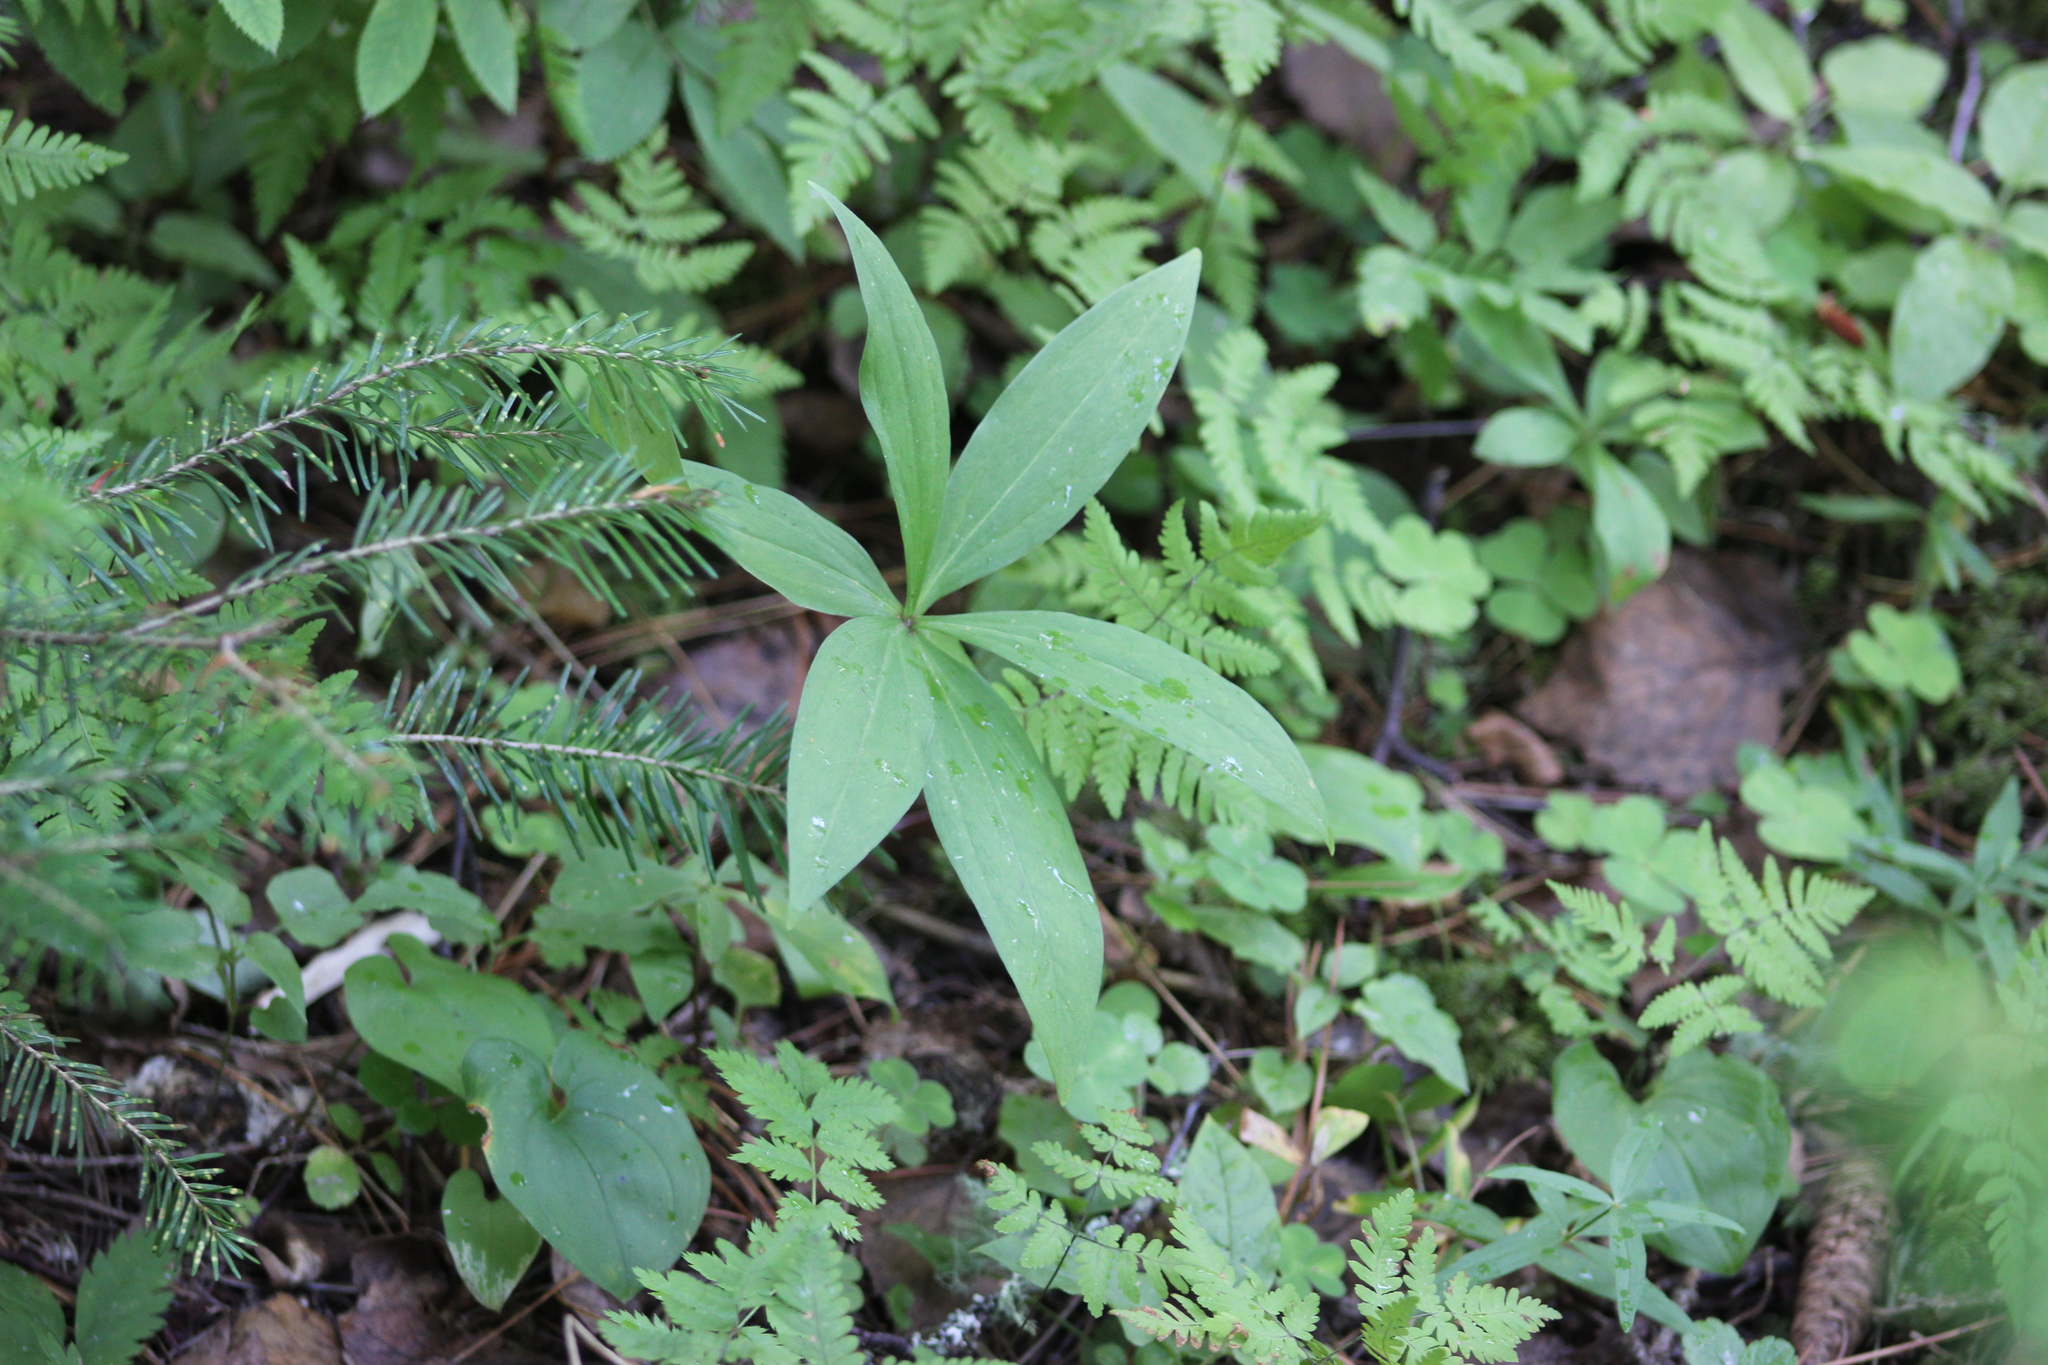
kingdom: Plantae
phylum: Tracheophyta
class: Liliopsida
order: Liliales
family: Liliaceae
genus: Lilium
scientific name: Lilium martagon
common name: Martagon lily
